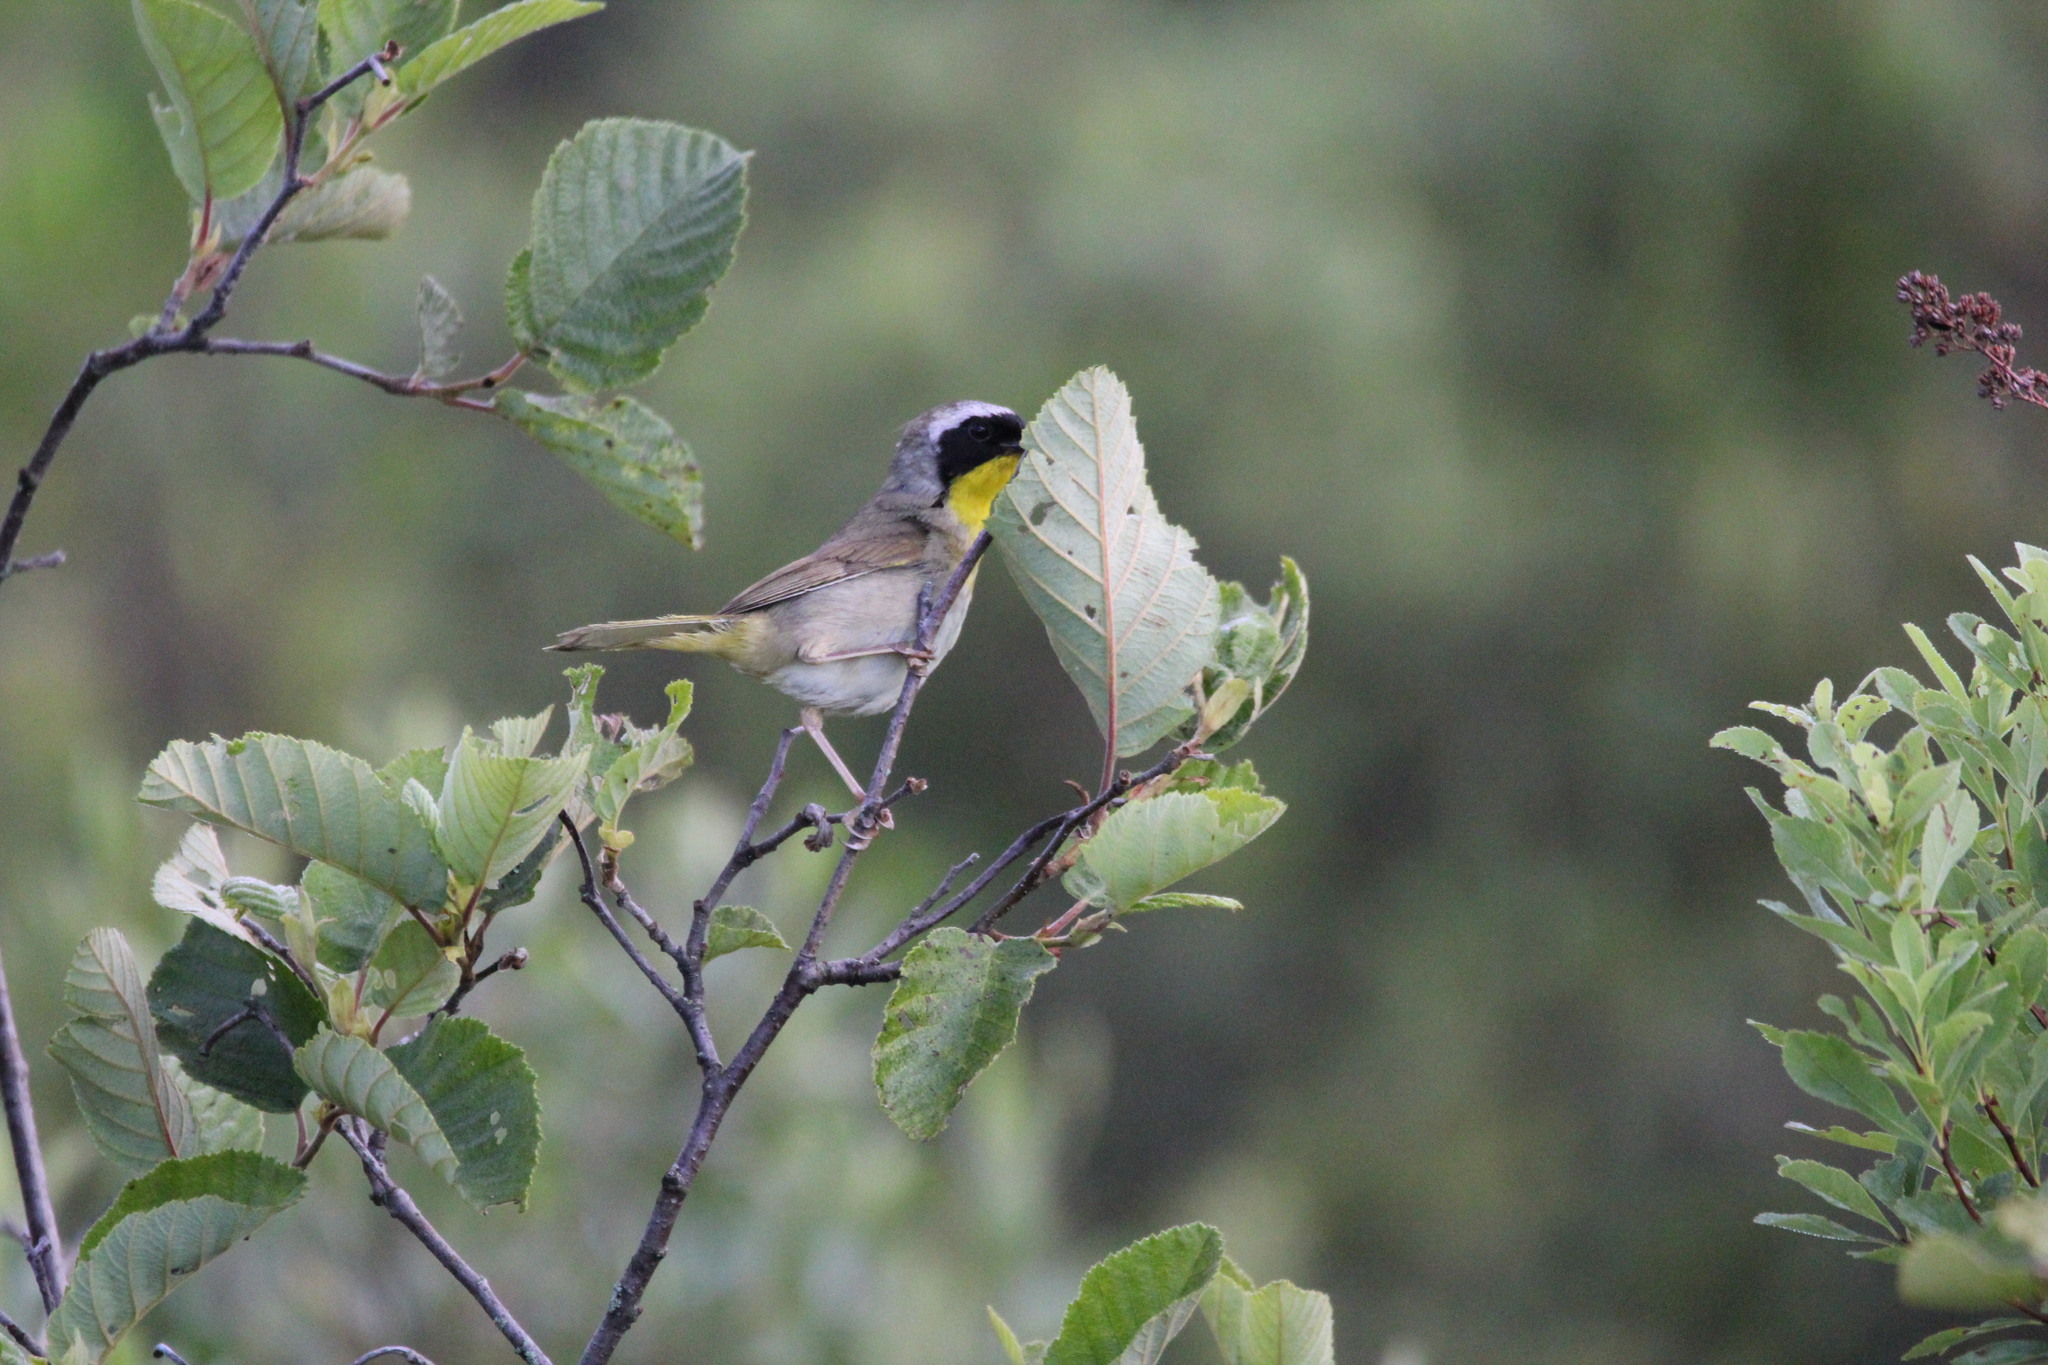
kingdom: Animalia
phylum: Chordata
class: Aves
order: Passeriformes
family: Parulidae
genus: Geothlypis
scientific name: Geothlypis trichas
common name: Common yellowthroat
